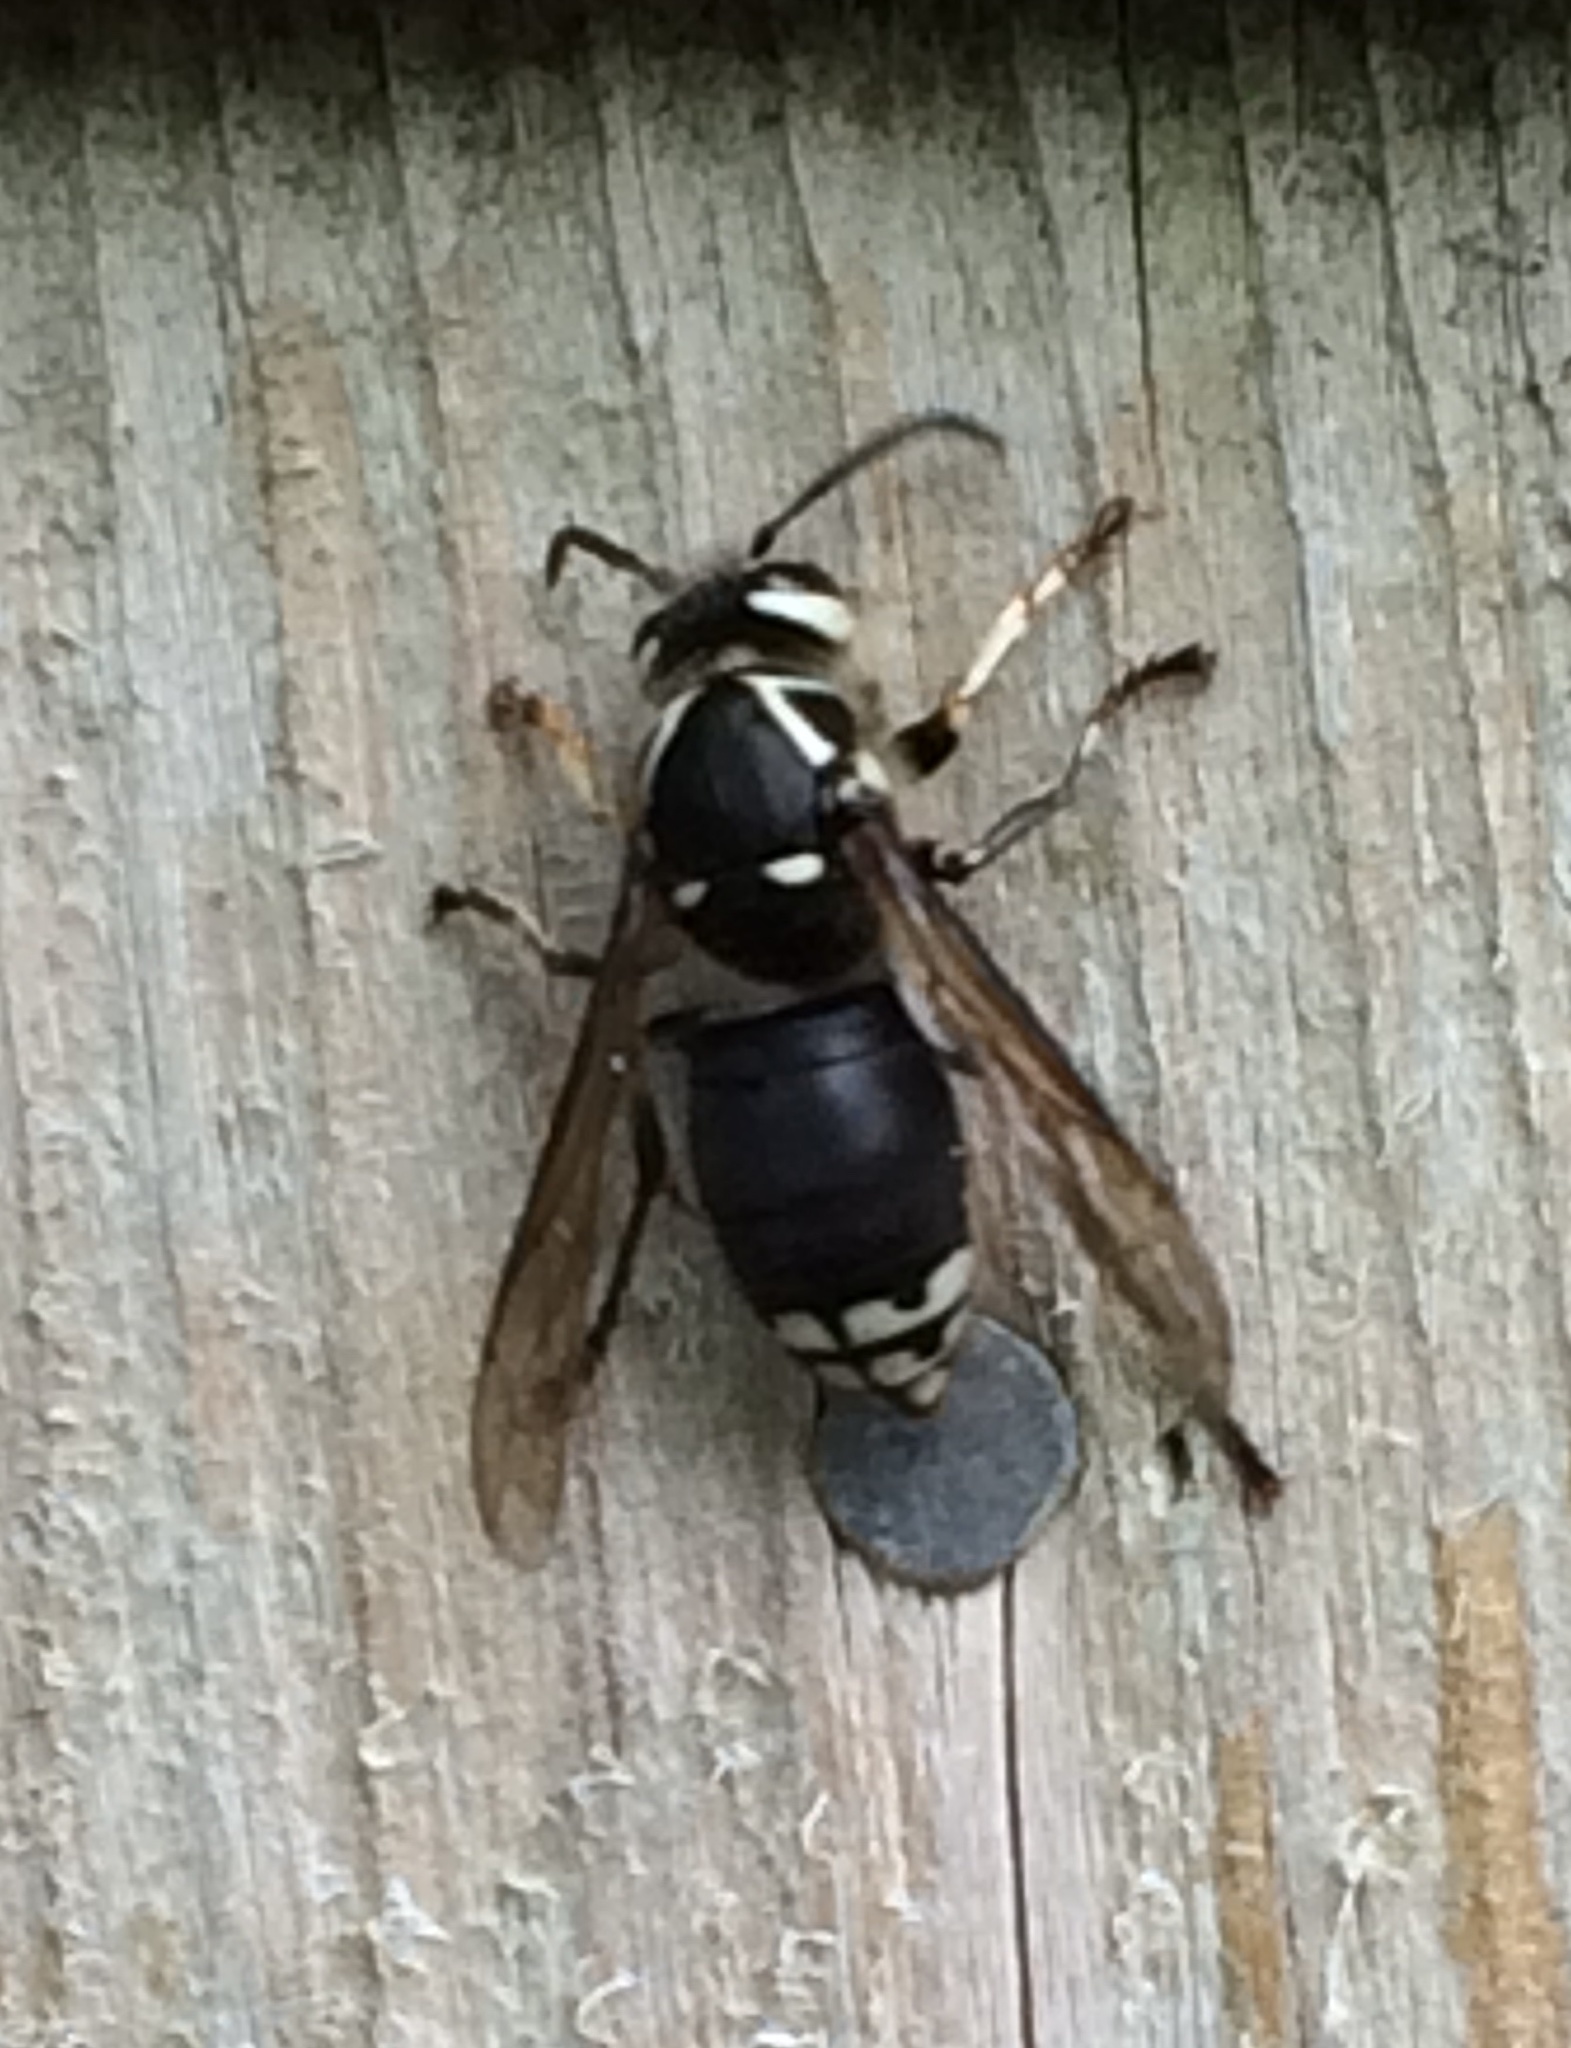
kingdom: Animalia
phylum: Arthropoda
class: Insecta
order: Hymenoptera
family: Vespidae
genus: Dolichovespula
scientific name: Dolichovespula maculata
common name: Bald-faced hornet
